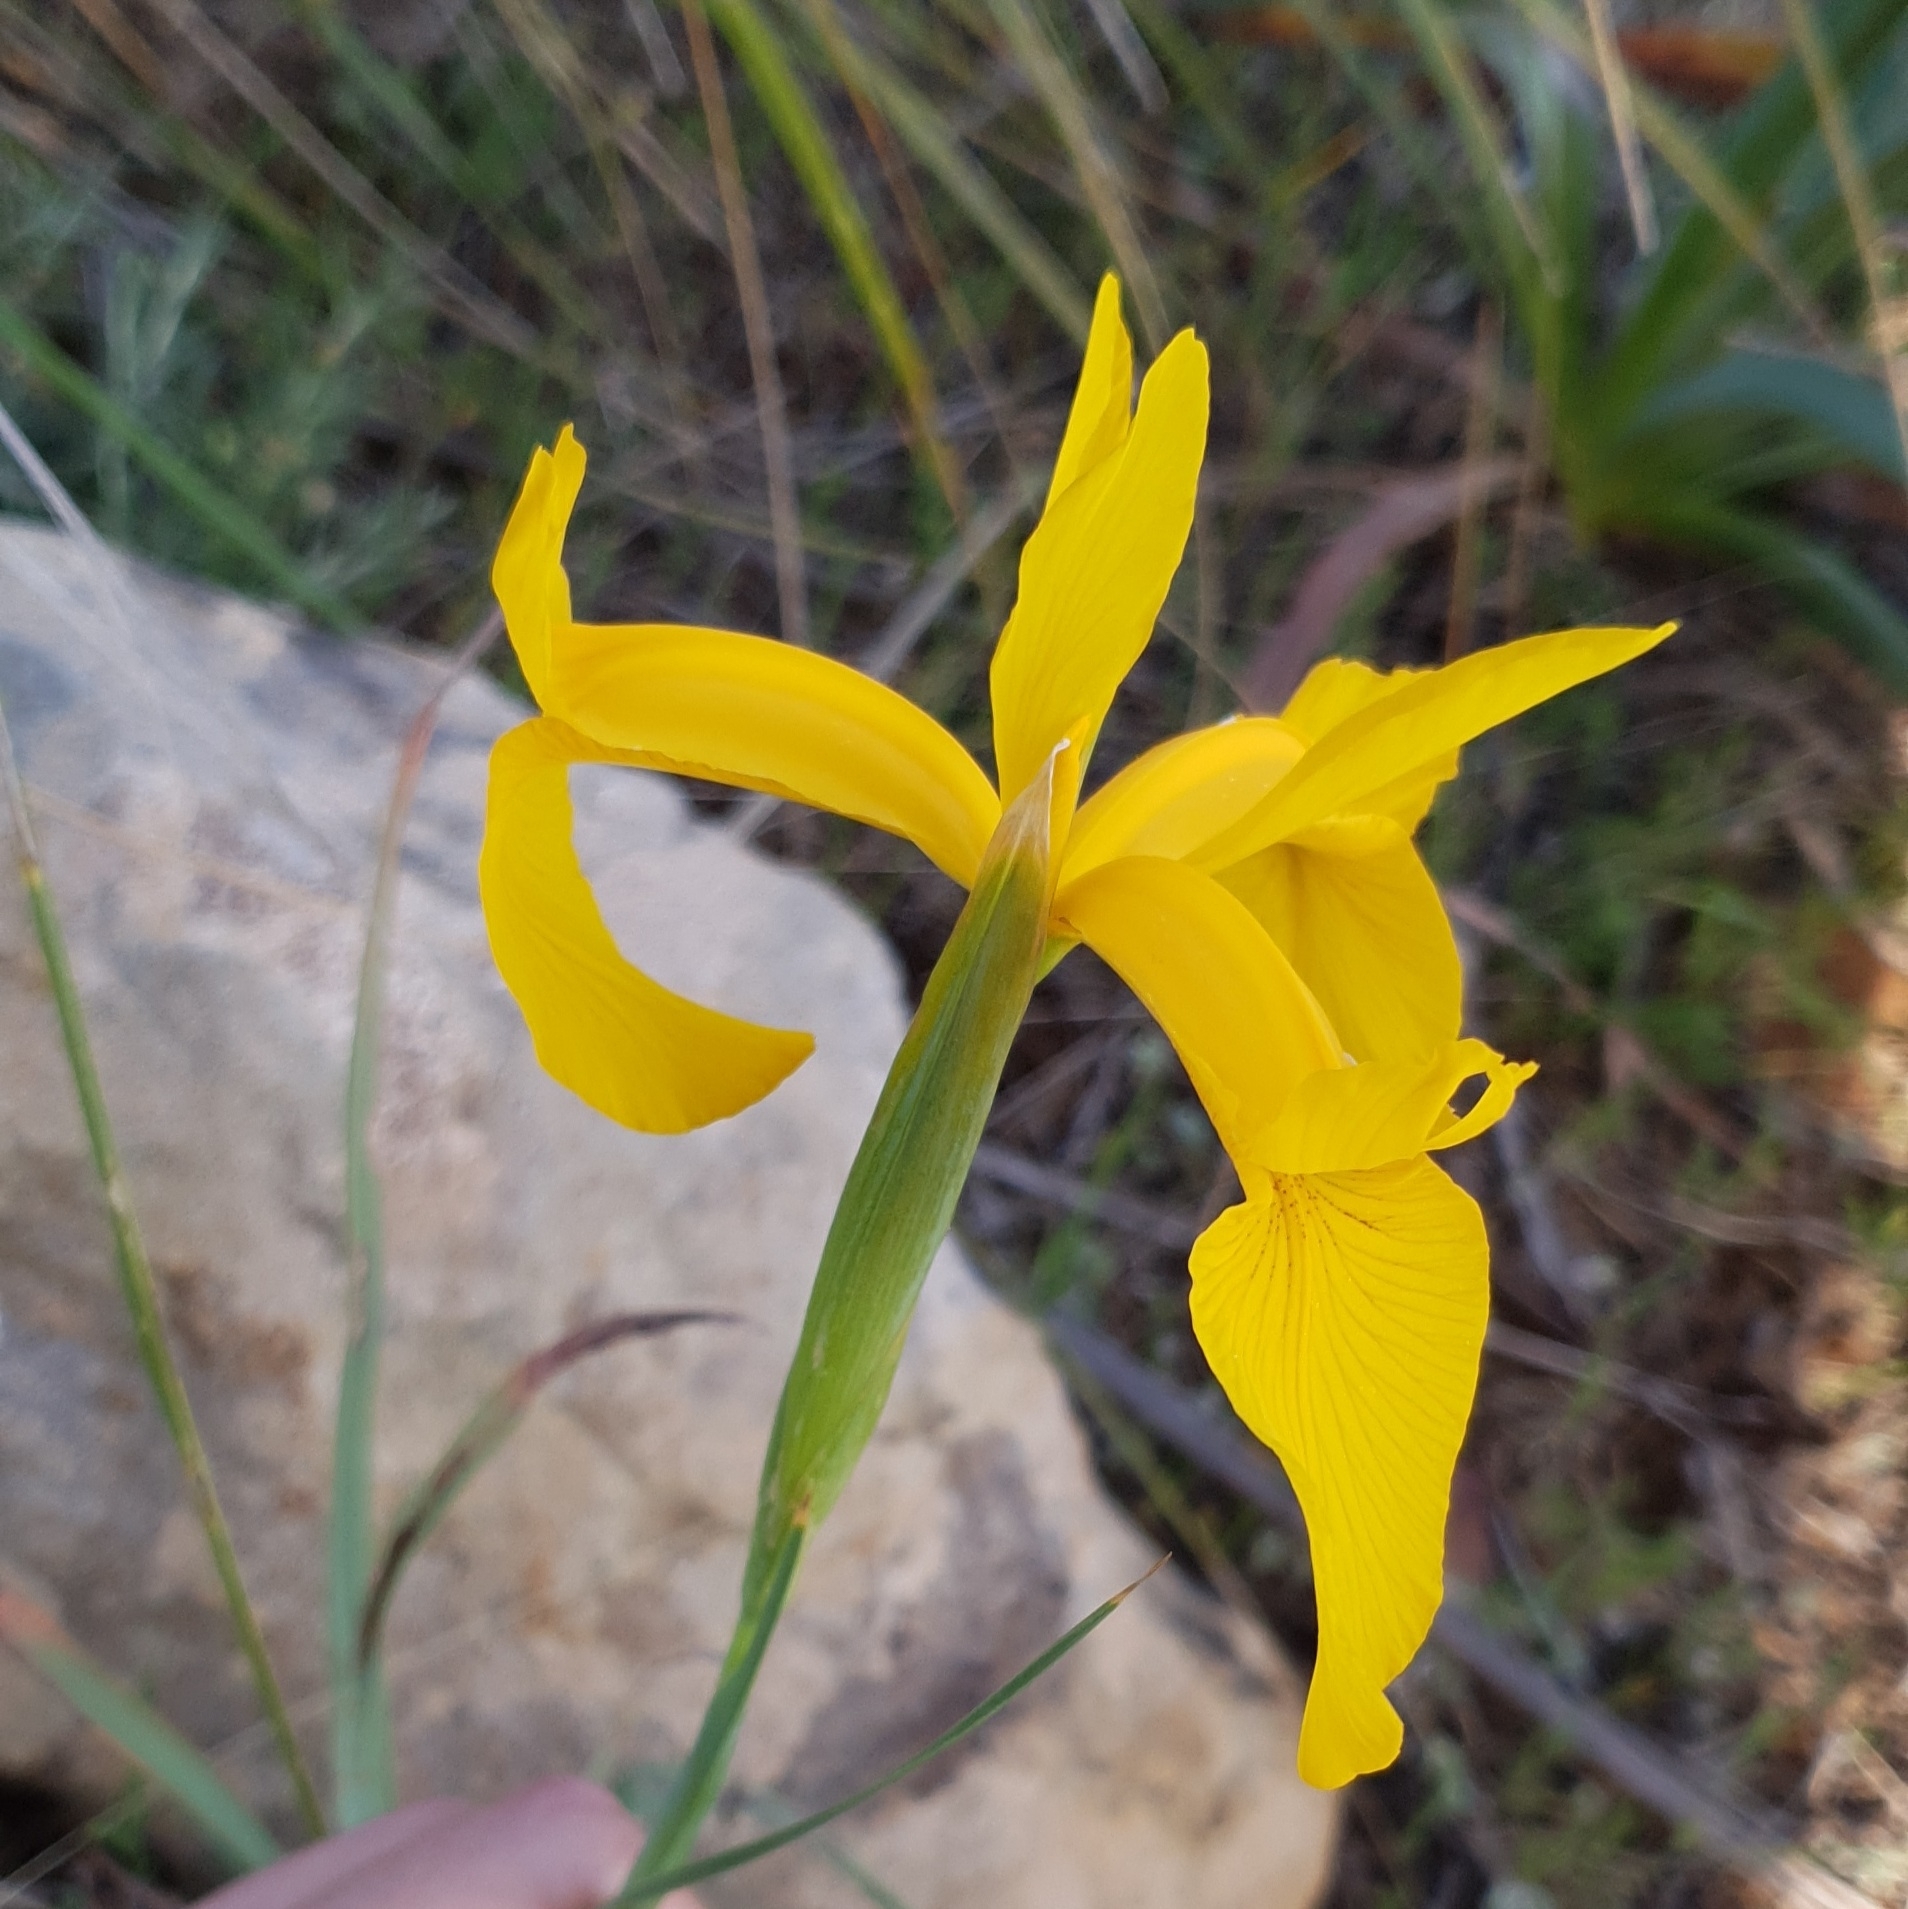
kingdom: Plantae
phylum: Tracheophyta
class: Liliopsida
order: Asparagales
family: Iridaceae
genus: Iris
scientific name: Iris juncea
